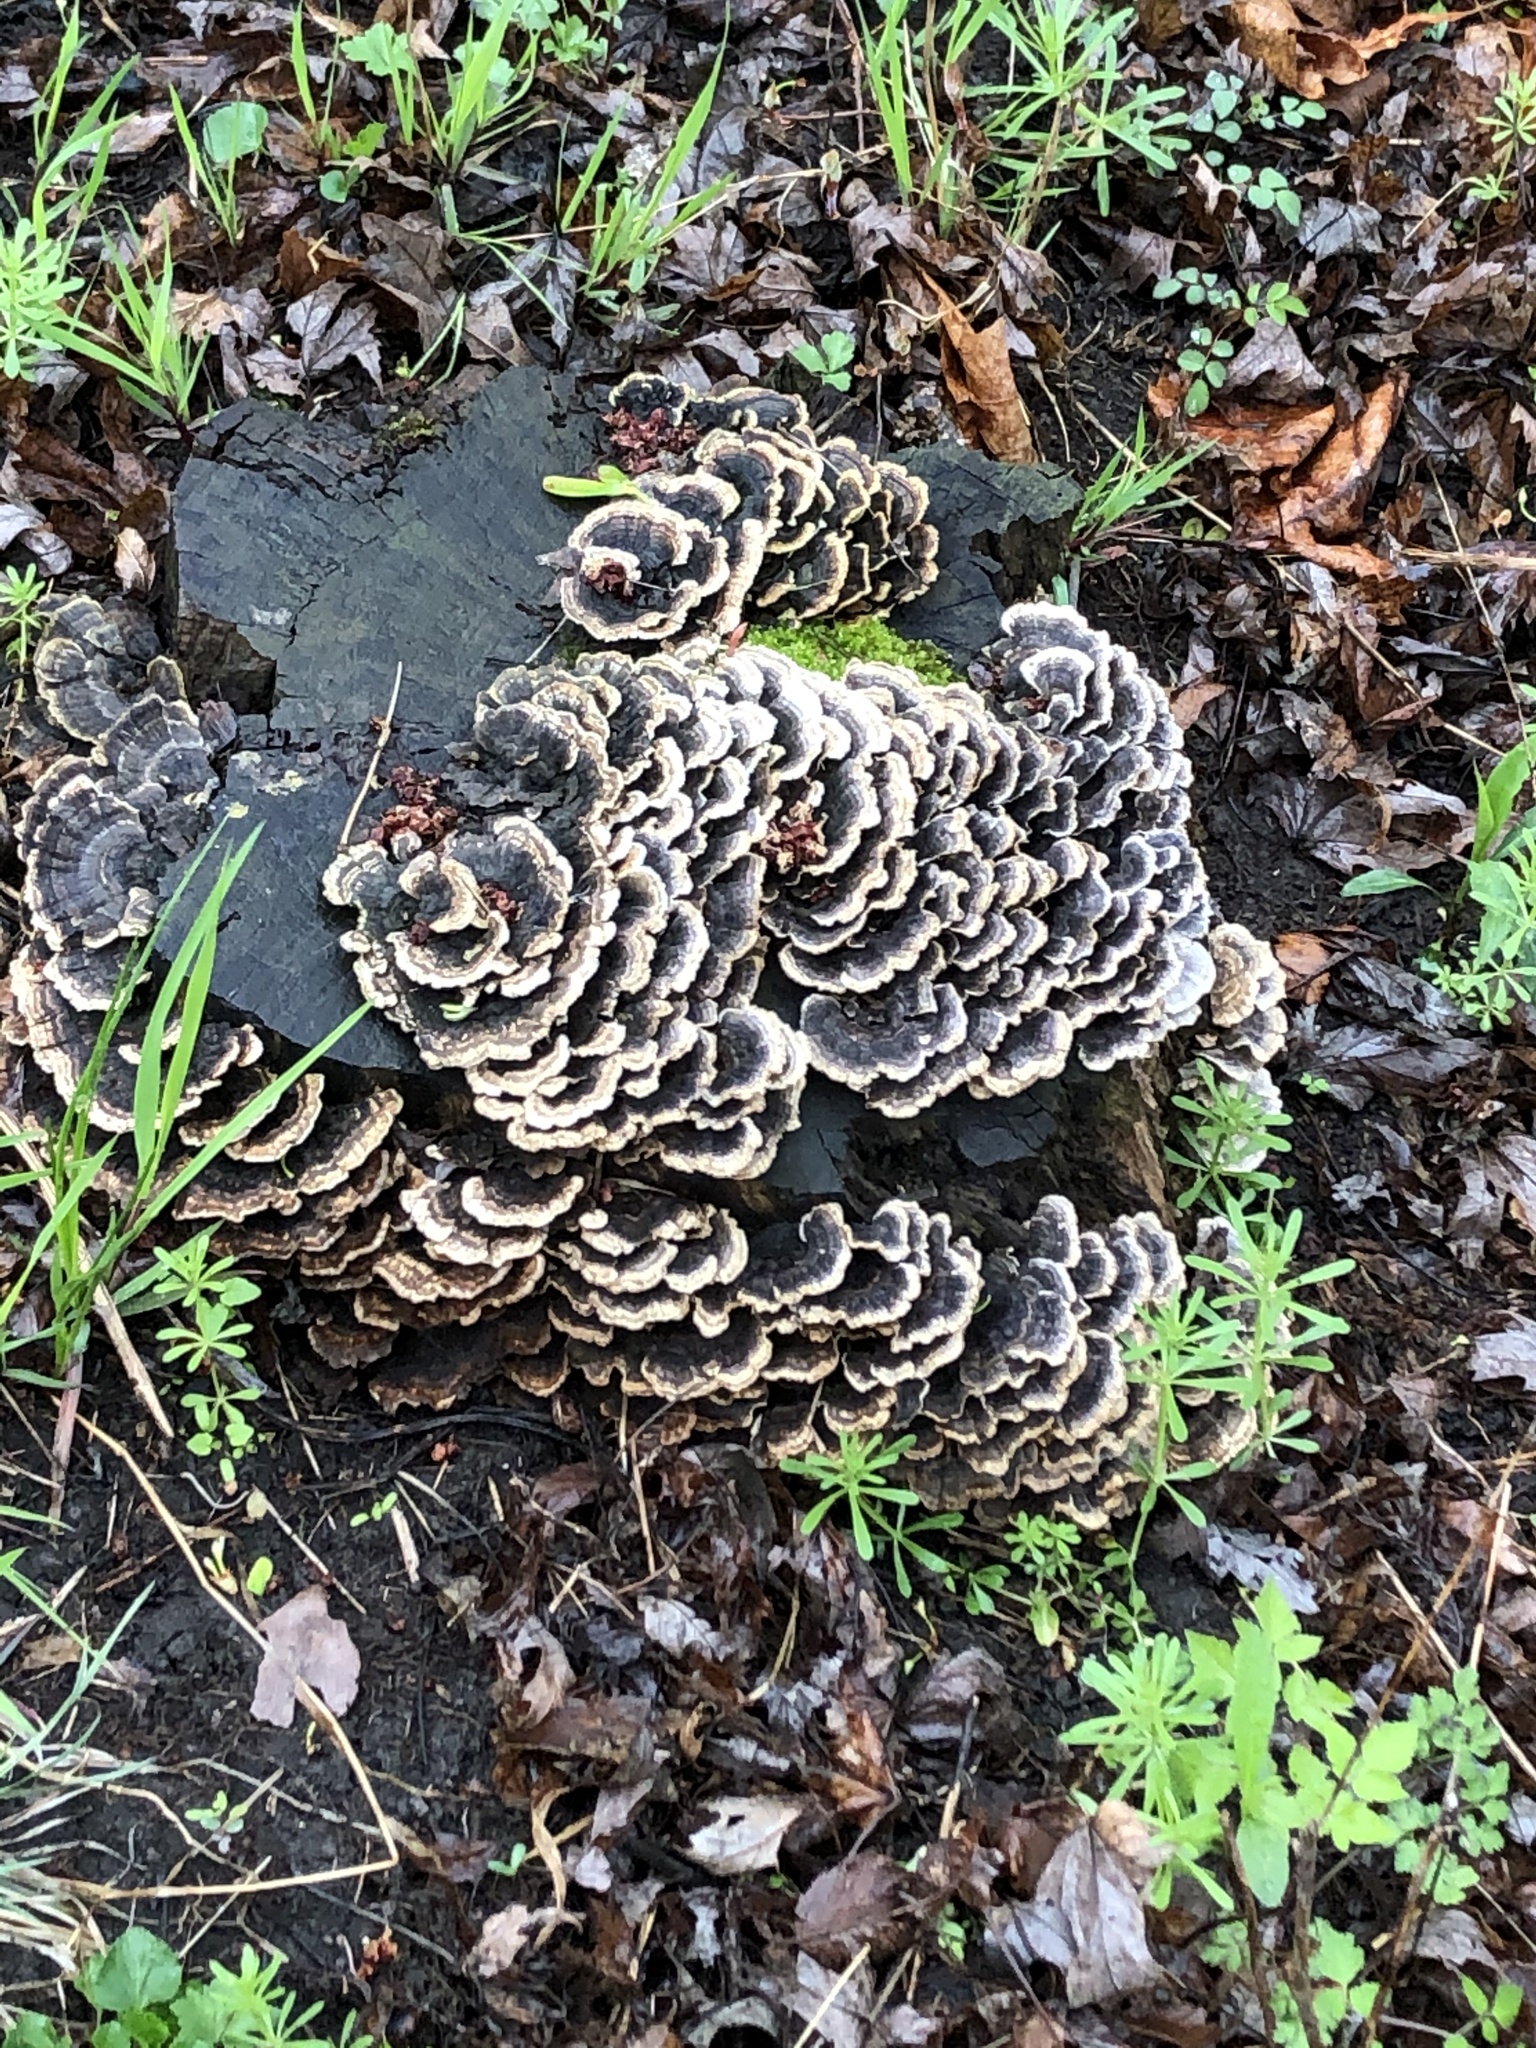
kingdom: Fungi
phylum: Basidiomycota
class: Agaricomycetes
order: Polyporales
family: Polyporaceae
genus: Trametes
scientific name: Trametes versicolor
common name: Turkeytail
